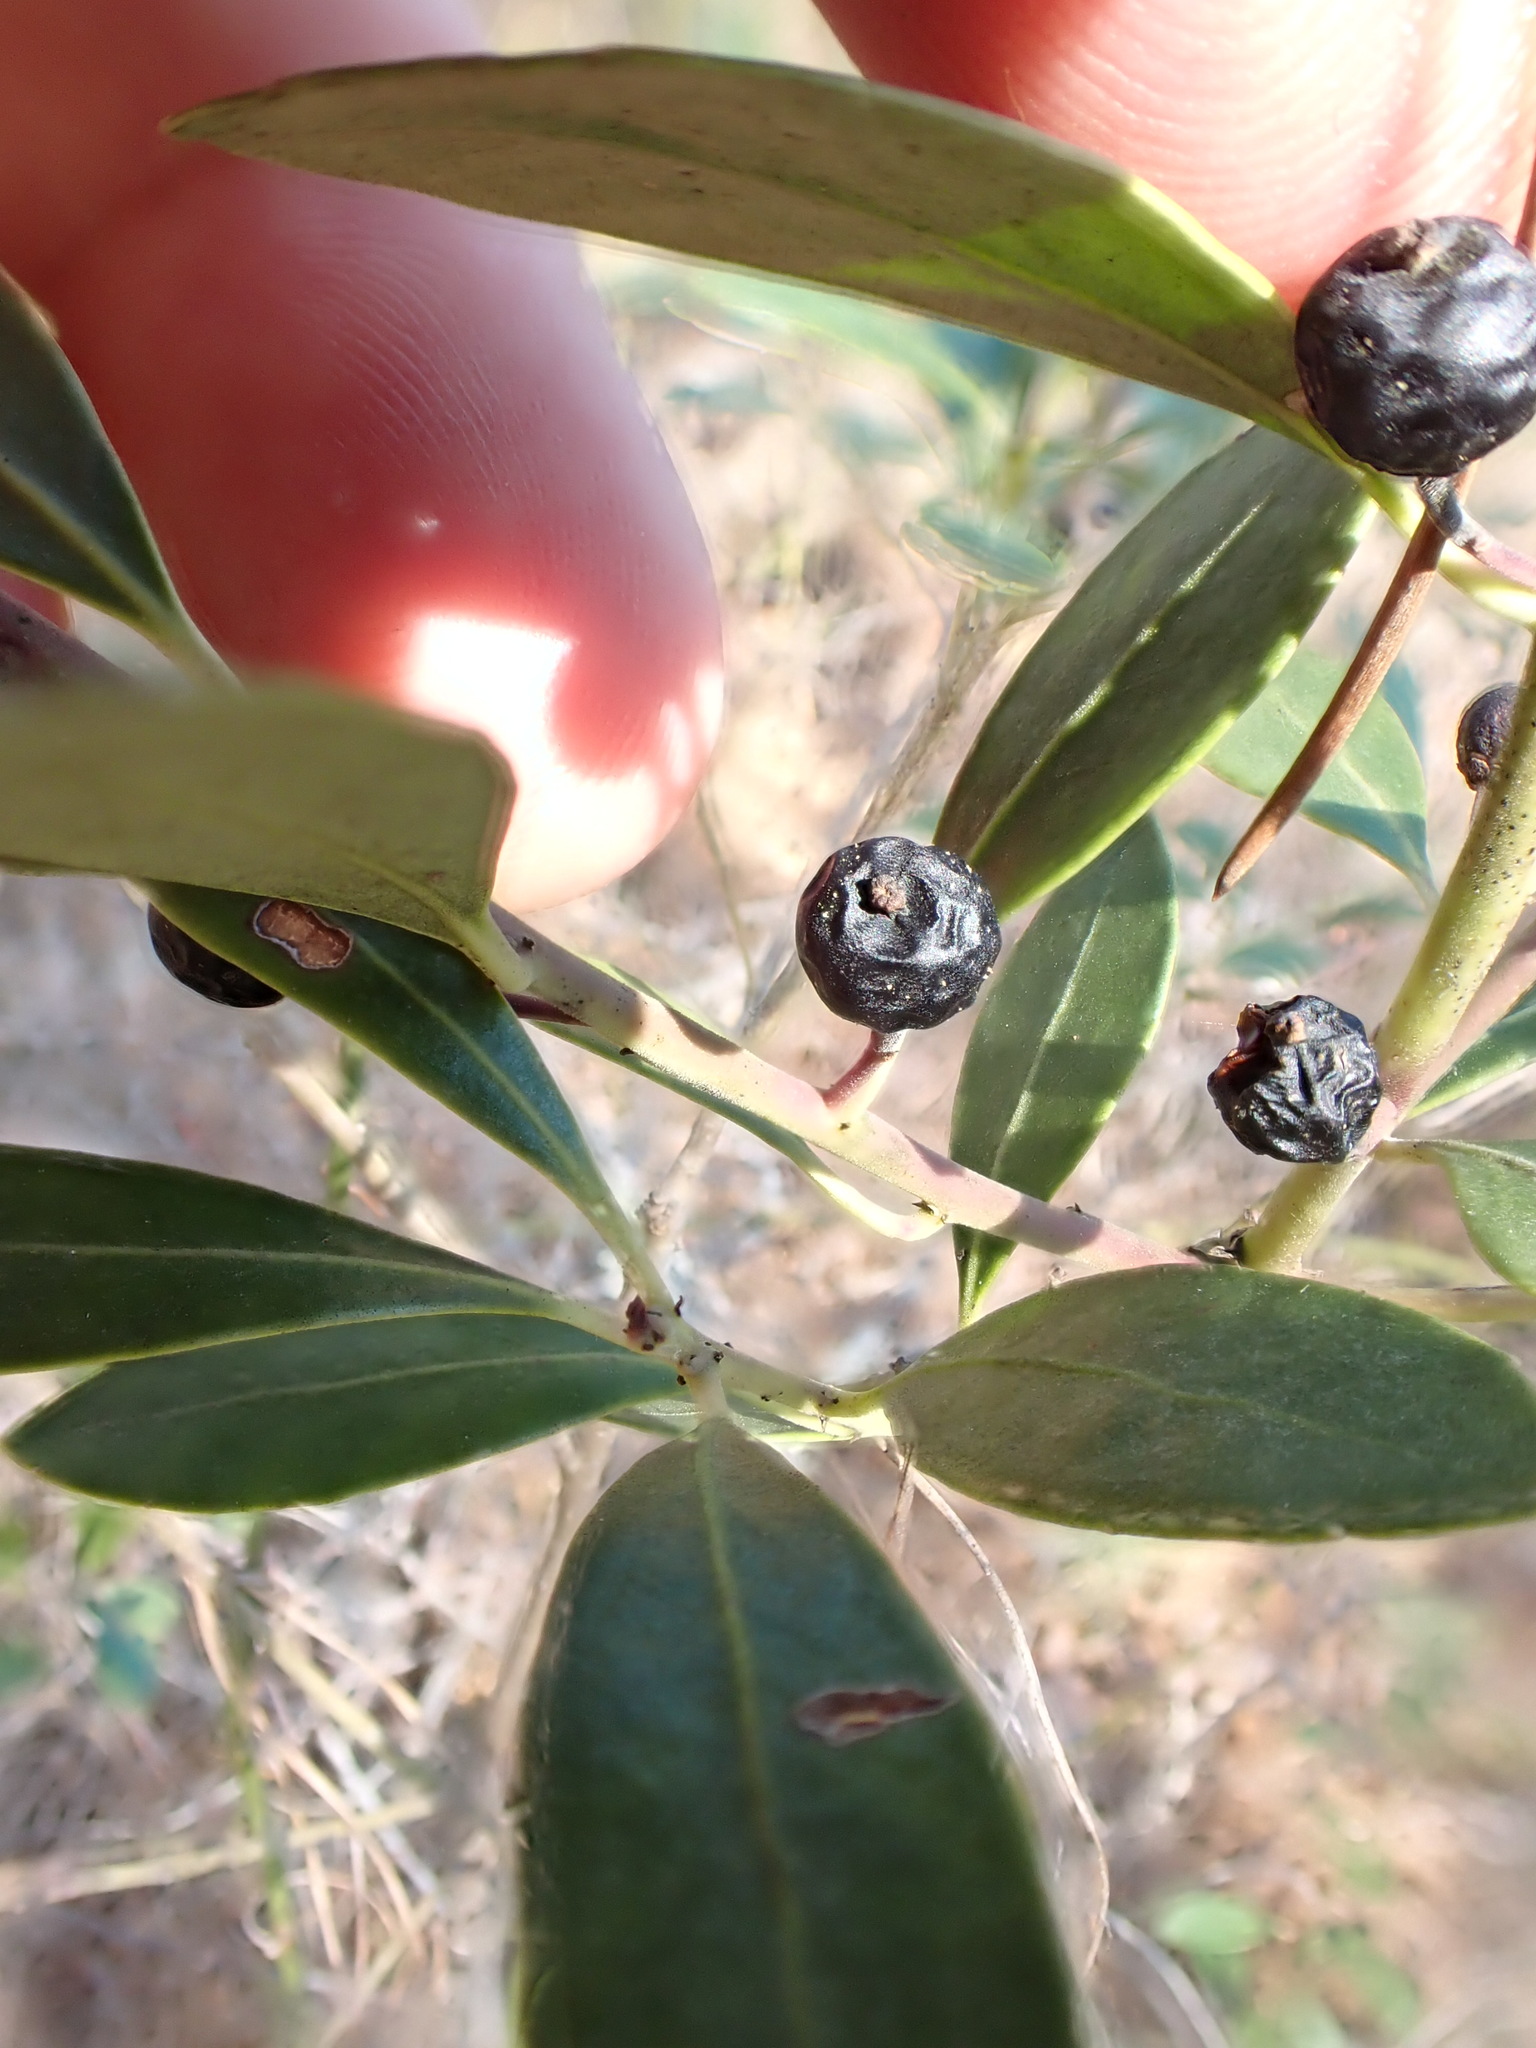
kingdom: Plantae
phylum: Tracheophyta
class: Magnoliopsida
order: Aquifoliales
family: Aquifoliaceae
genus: Ilex
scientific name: Ilex glabra
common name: Bitter gallberry
